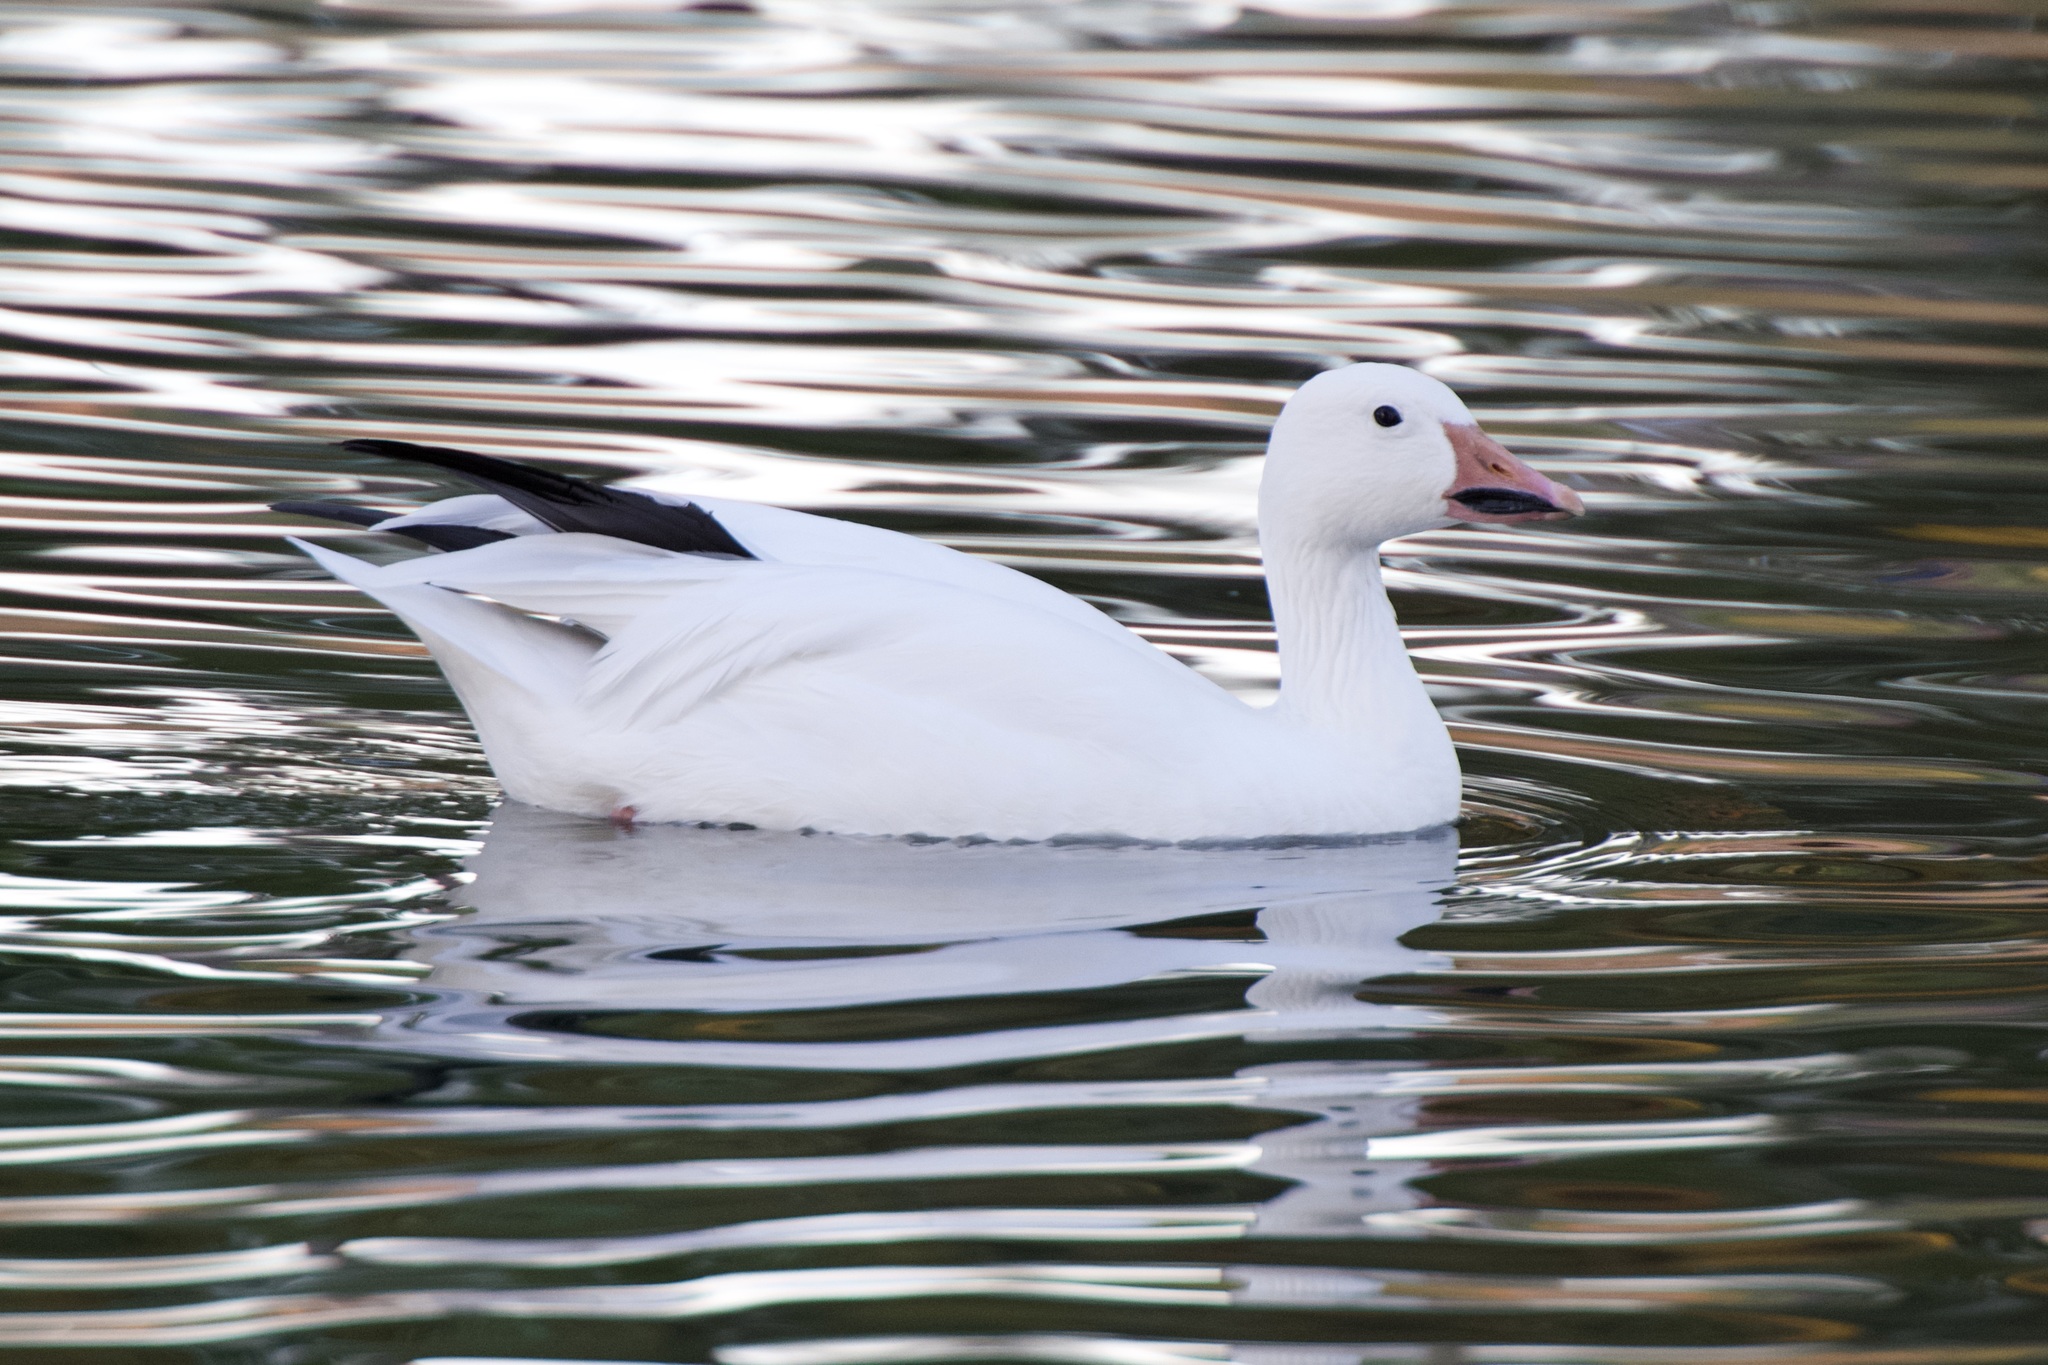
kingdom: Animalia
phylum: Chordata
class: Aves
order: Anseriformes
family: Anatidae
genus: Anser
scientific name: Anser caerulescens
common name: Snow goose
